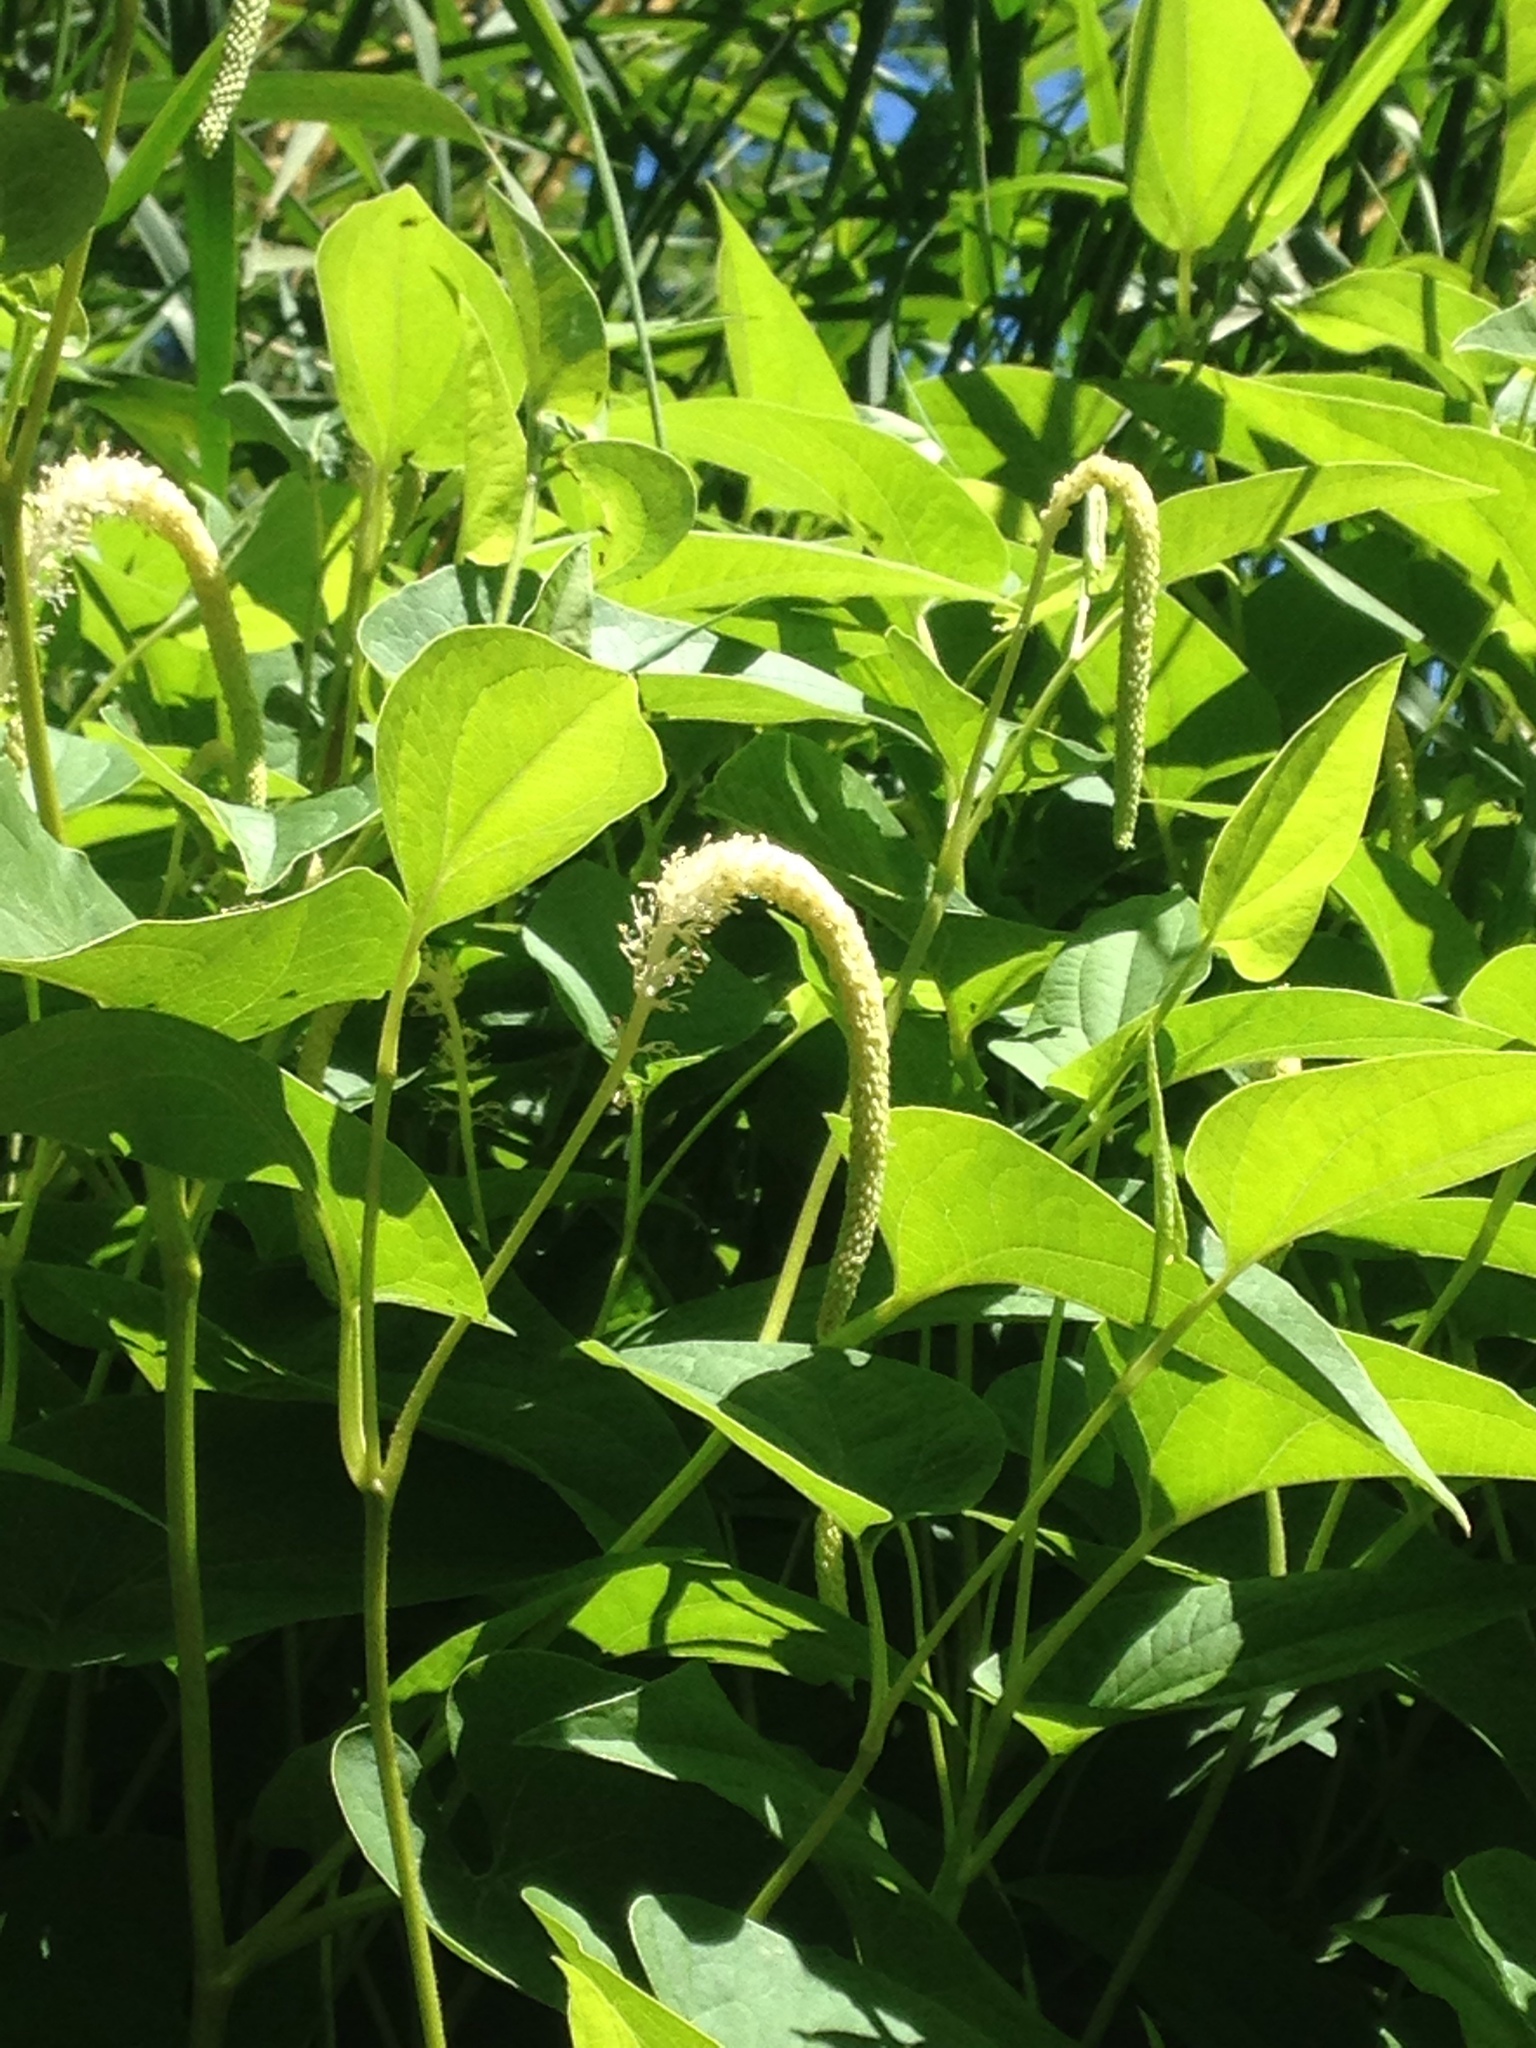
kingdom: Plantae
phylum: Tracheophyta
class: Magnoliopsida
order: Piperales
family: Saururaceae
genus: Saururus
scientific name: Saururus cernuus
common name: Lizard's-tail
